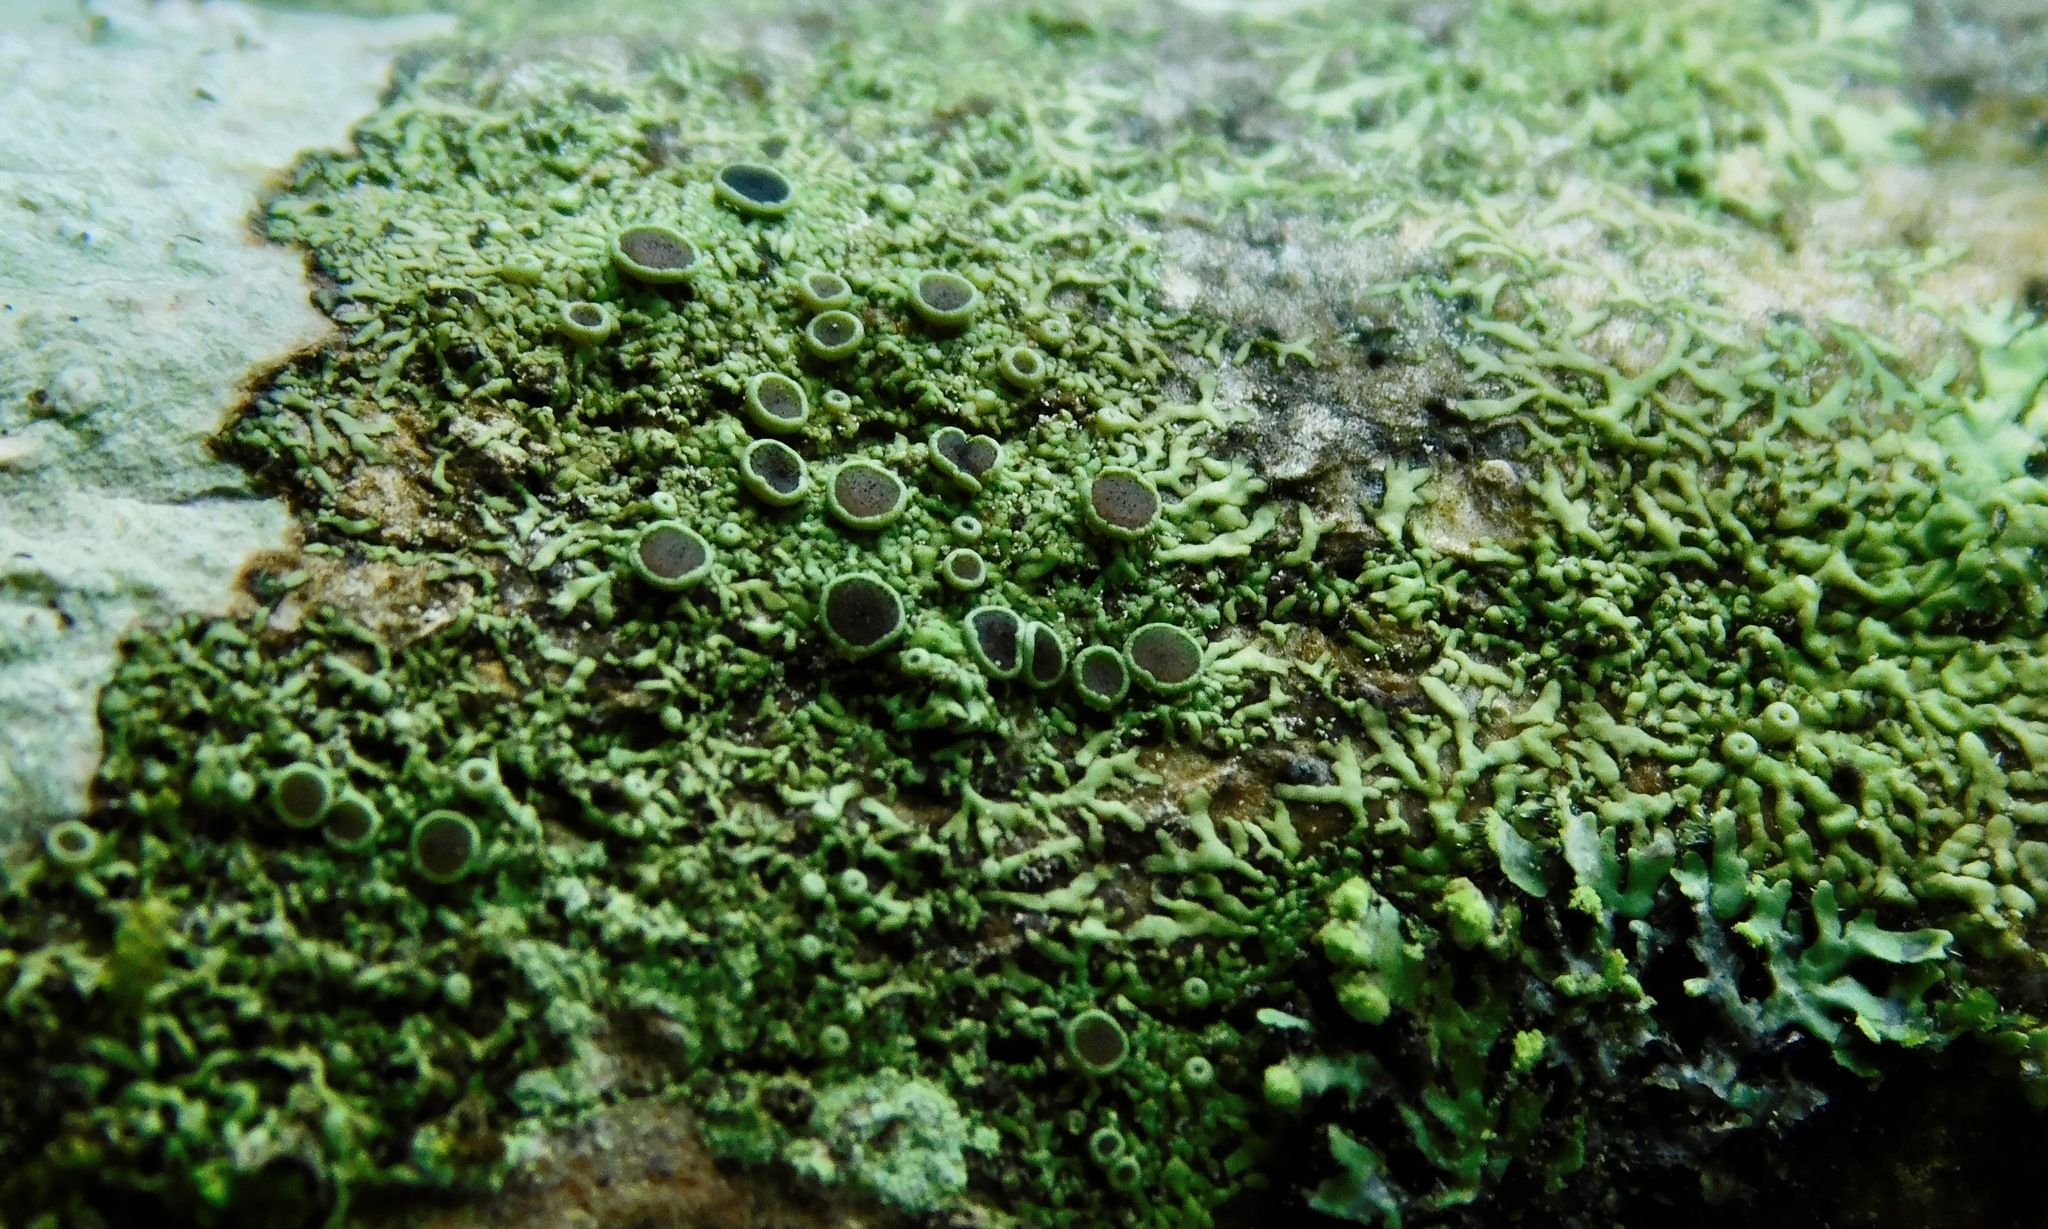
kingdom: Fungi
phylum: Ascomycota
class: Lecanoromycetes
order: Caliciales
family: Physciaceae
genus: Hyperphyscia
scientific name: Hyperphyscia syncolla
